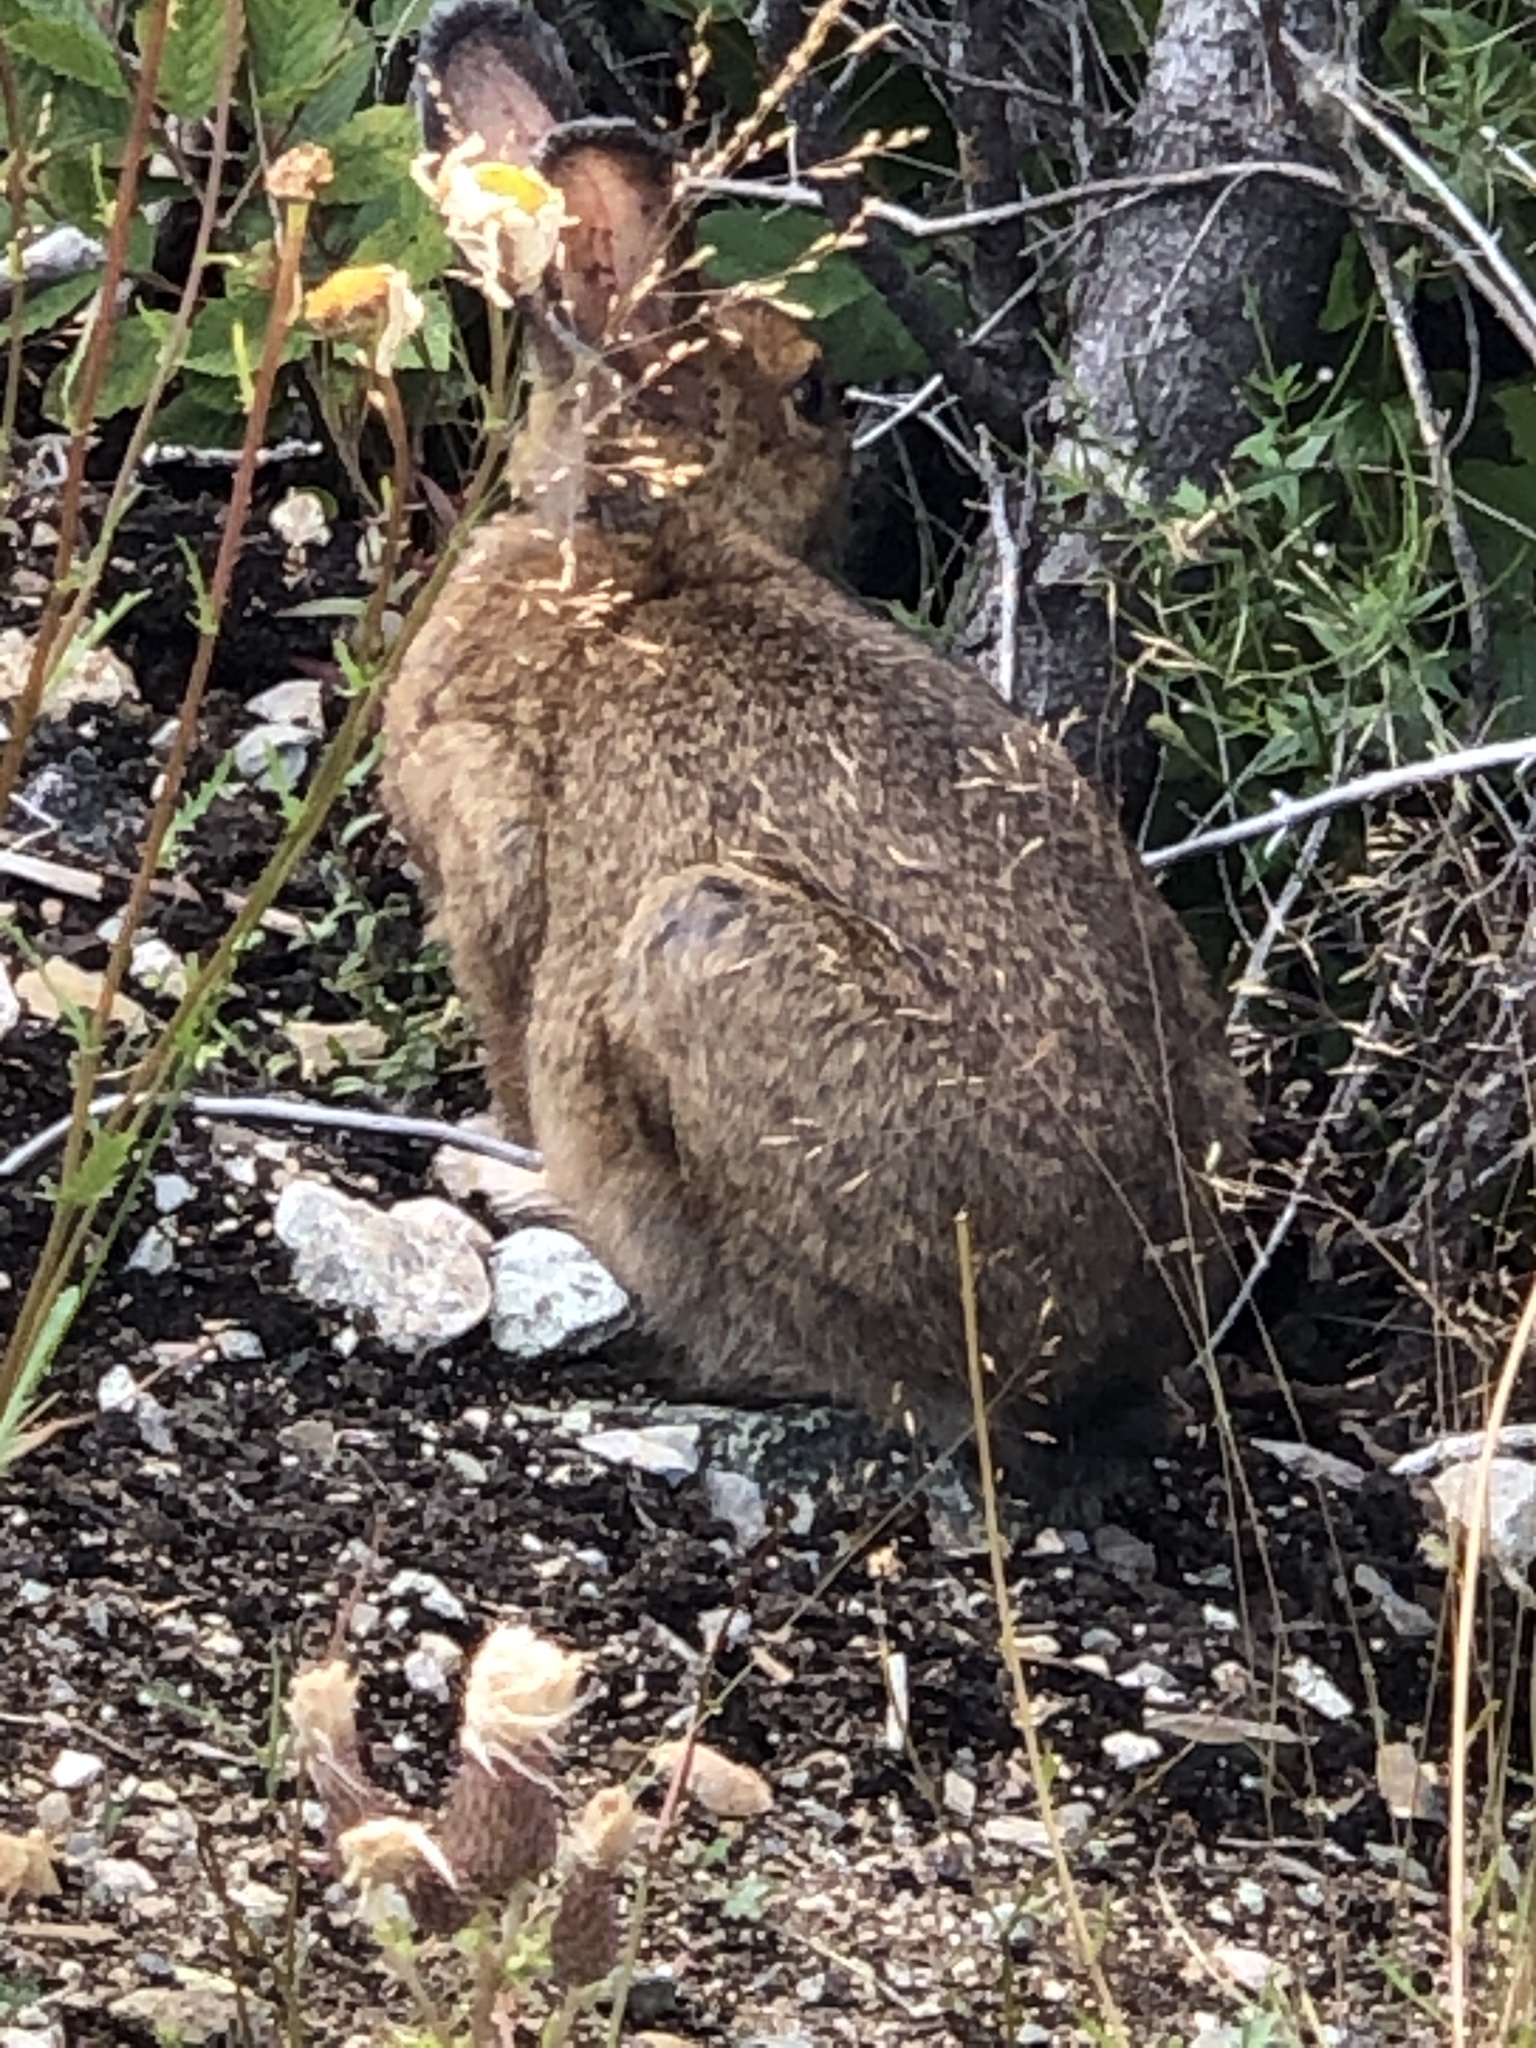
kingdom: Animalia
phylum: Chordata
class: Mammalia
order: Lagomorpha
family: Leporidae
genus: Lepus
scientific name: Lepus americanus
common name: Snowshoe hare
